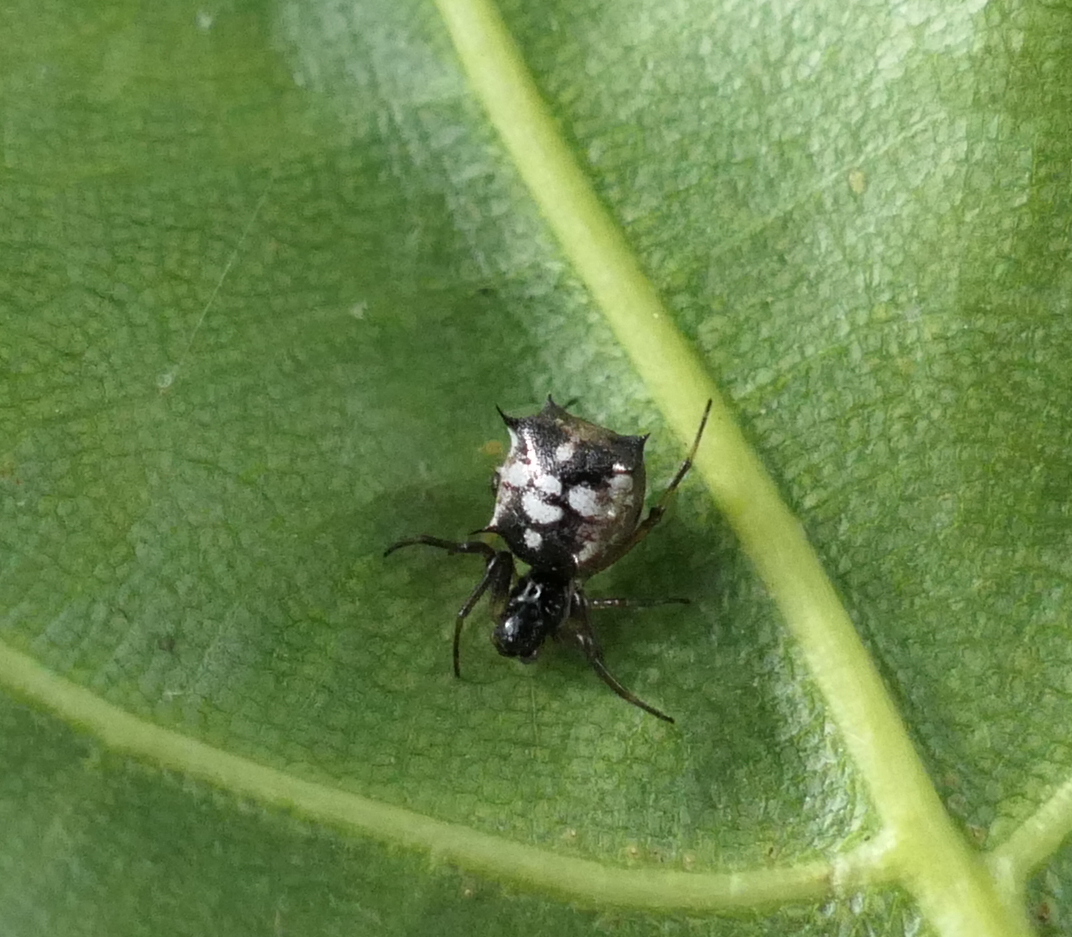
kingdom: Animalia
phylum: Arthropoda
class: Arachnida
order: Araneae
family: Araneidae
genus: Micrathena
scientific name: Micrathena picta
